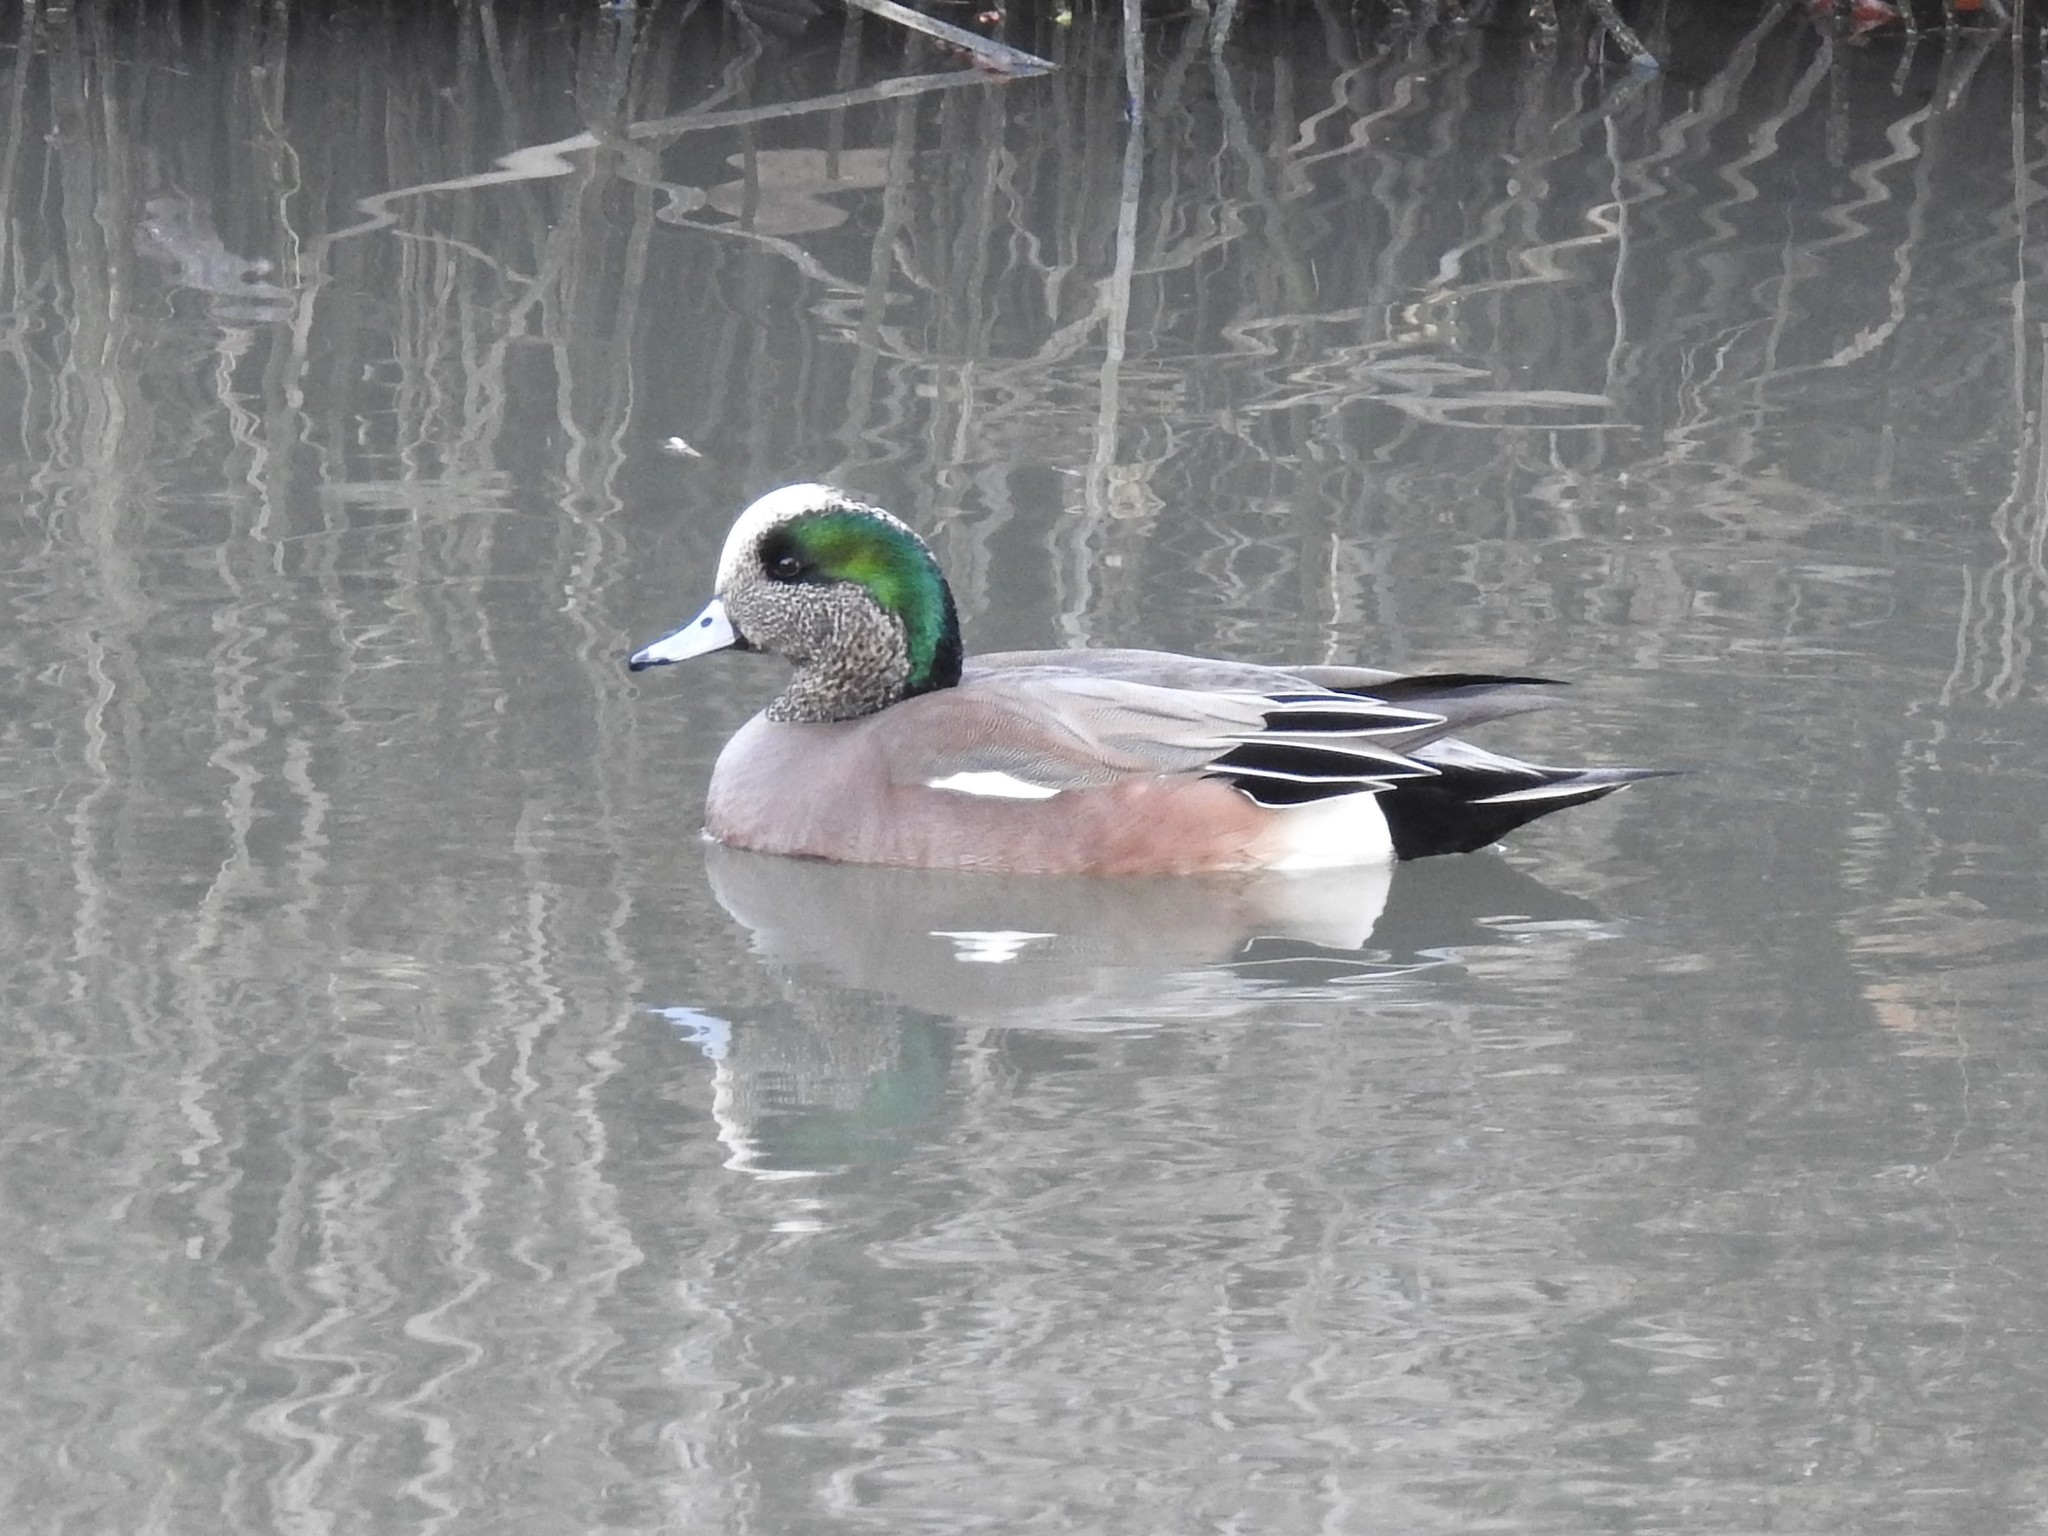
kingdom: Animalia
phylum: Chordata
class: Aves
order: Anseriformes
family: Anatidae
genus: Mareca
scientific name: Mareca americana
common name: American wigeon
